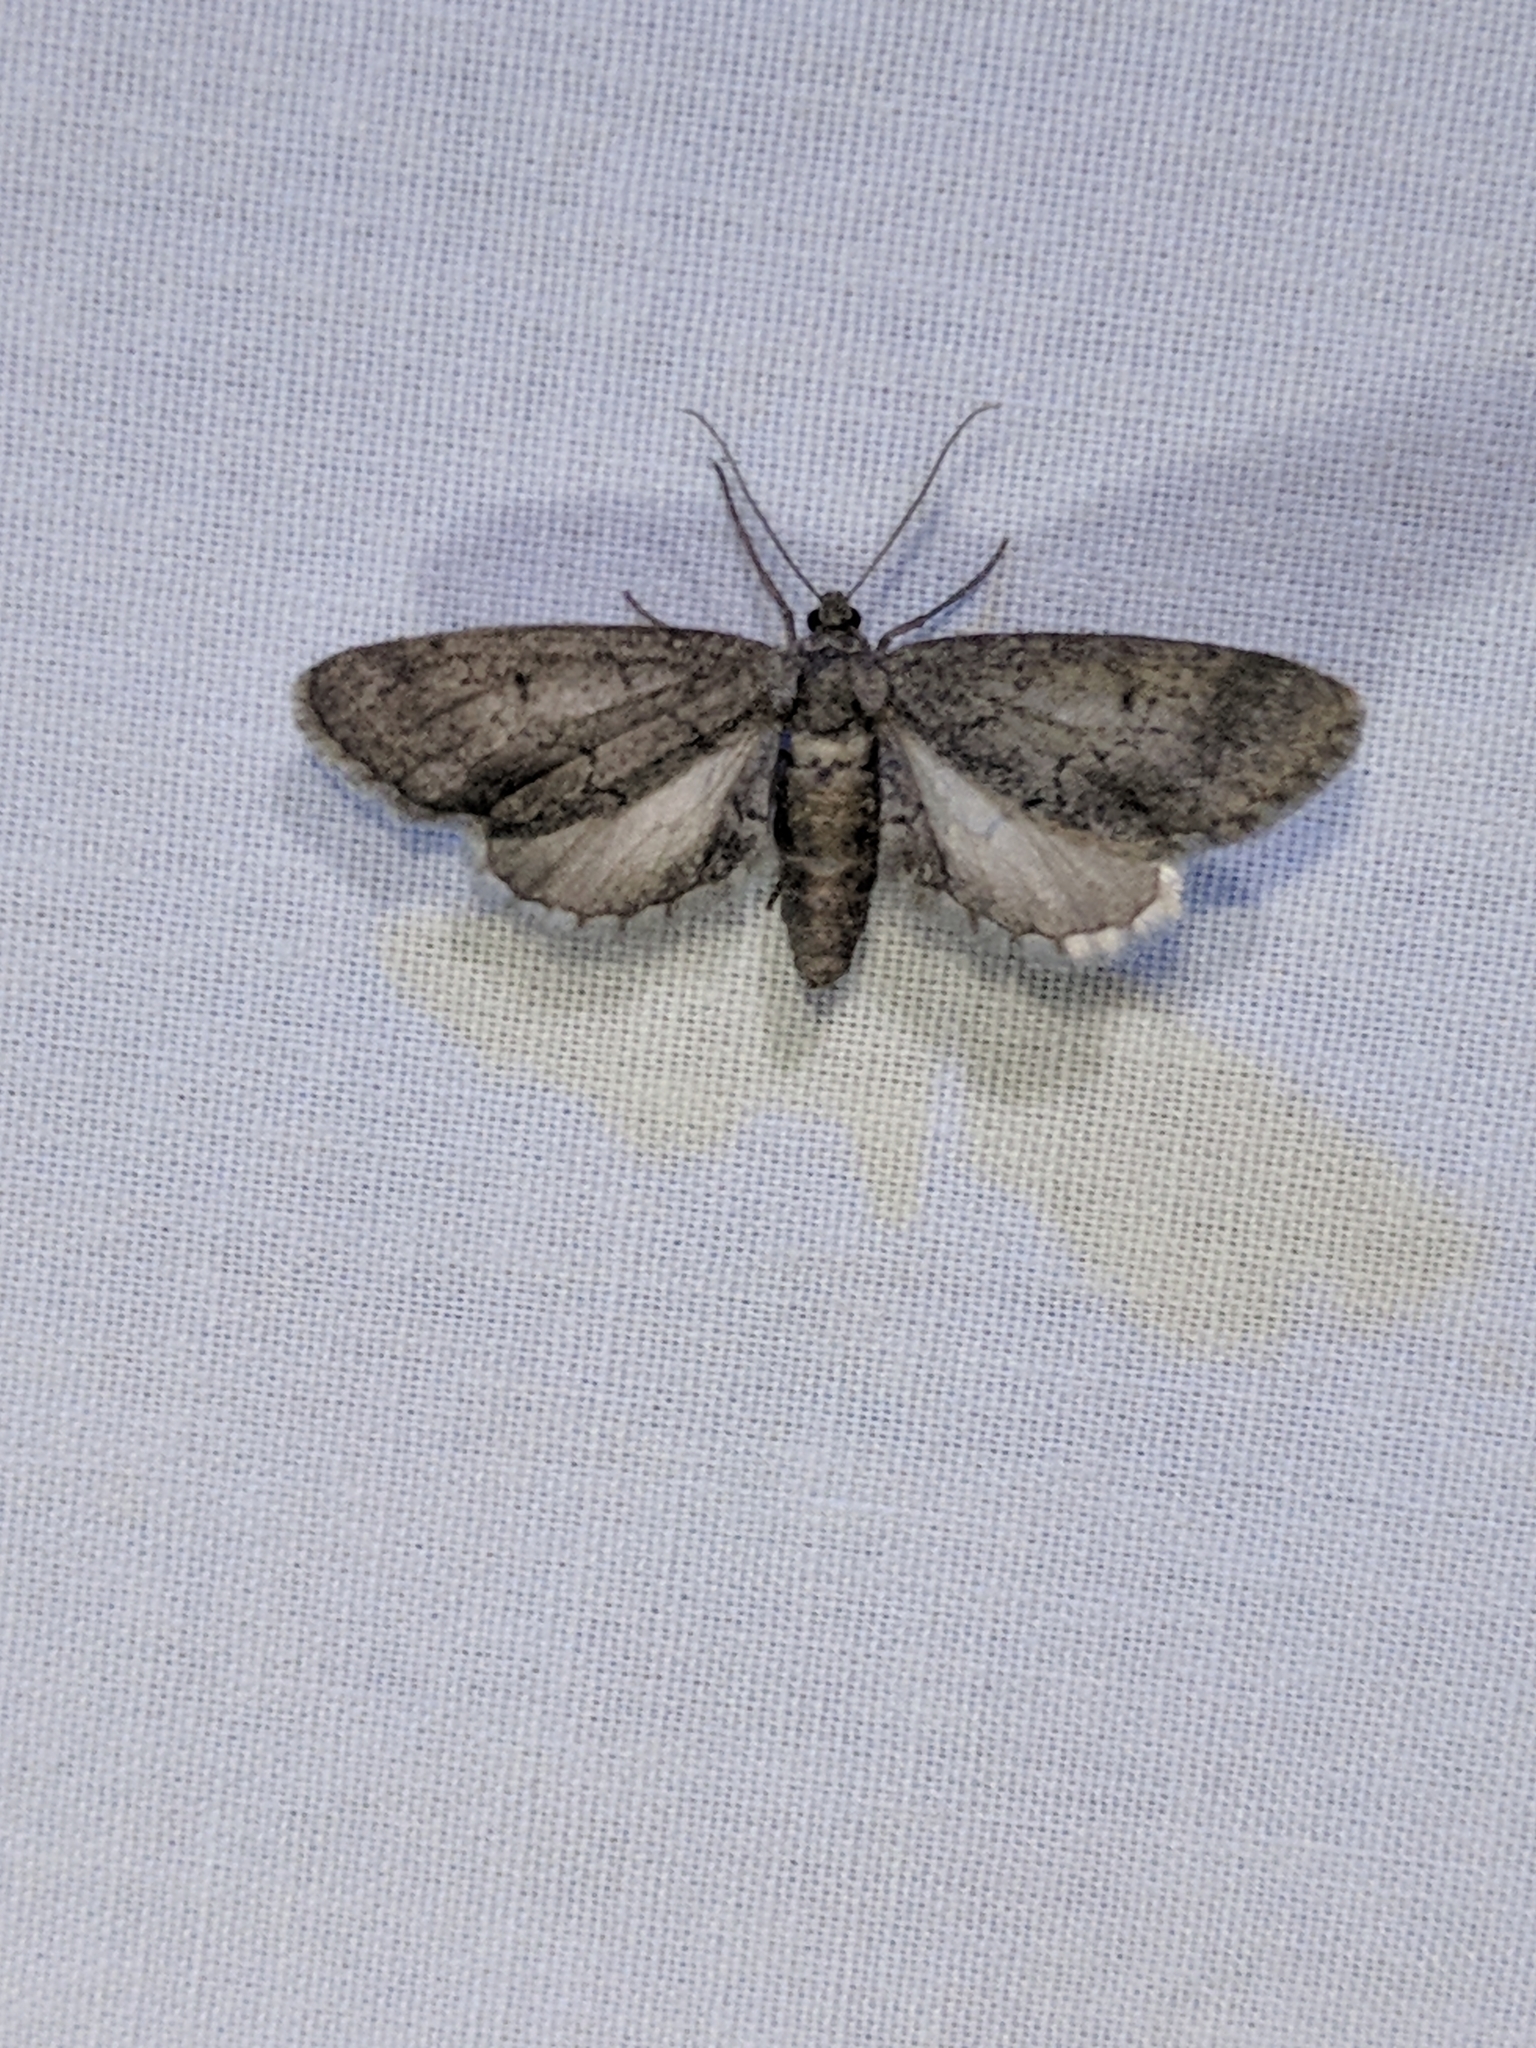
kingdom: Animalia
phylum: Arthropoda
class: Insecta
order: Lepidoptera
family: Geometridae
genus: Glaucina
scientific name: Glaucina erroraria
